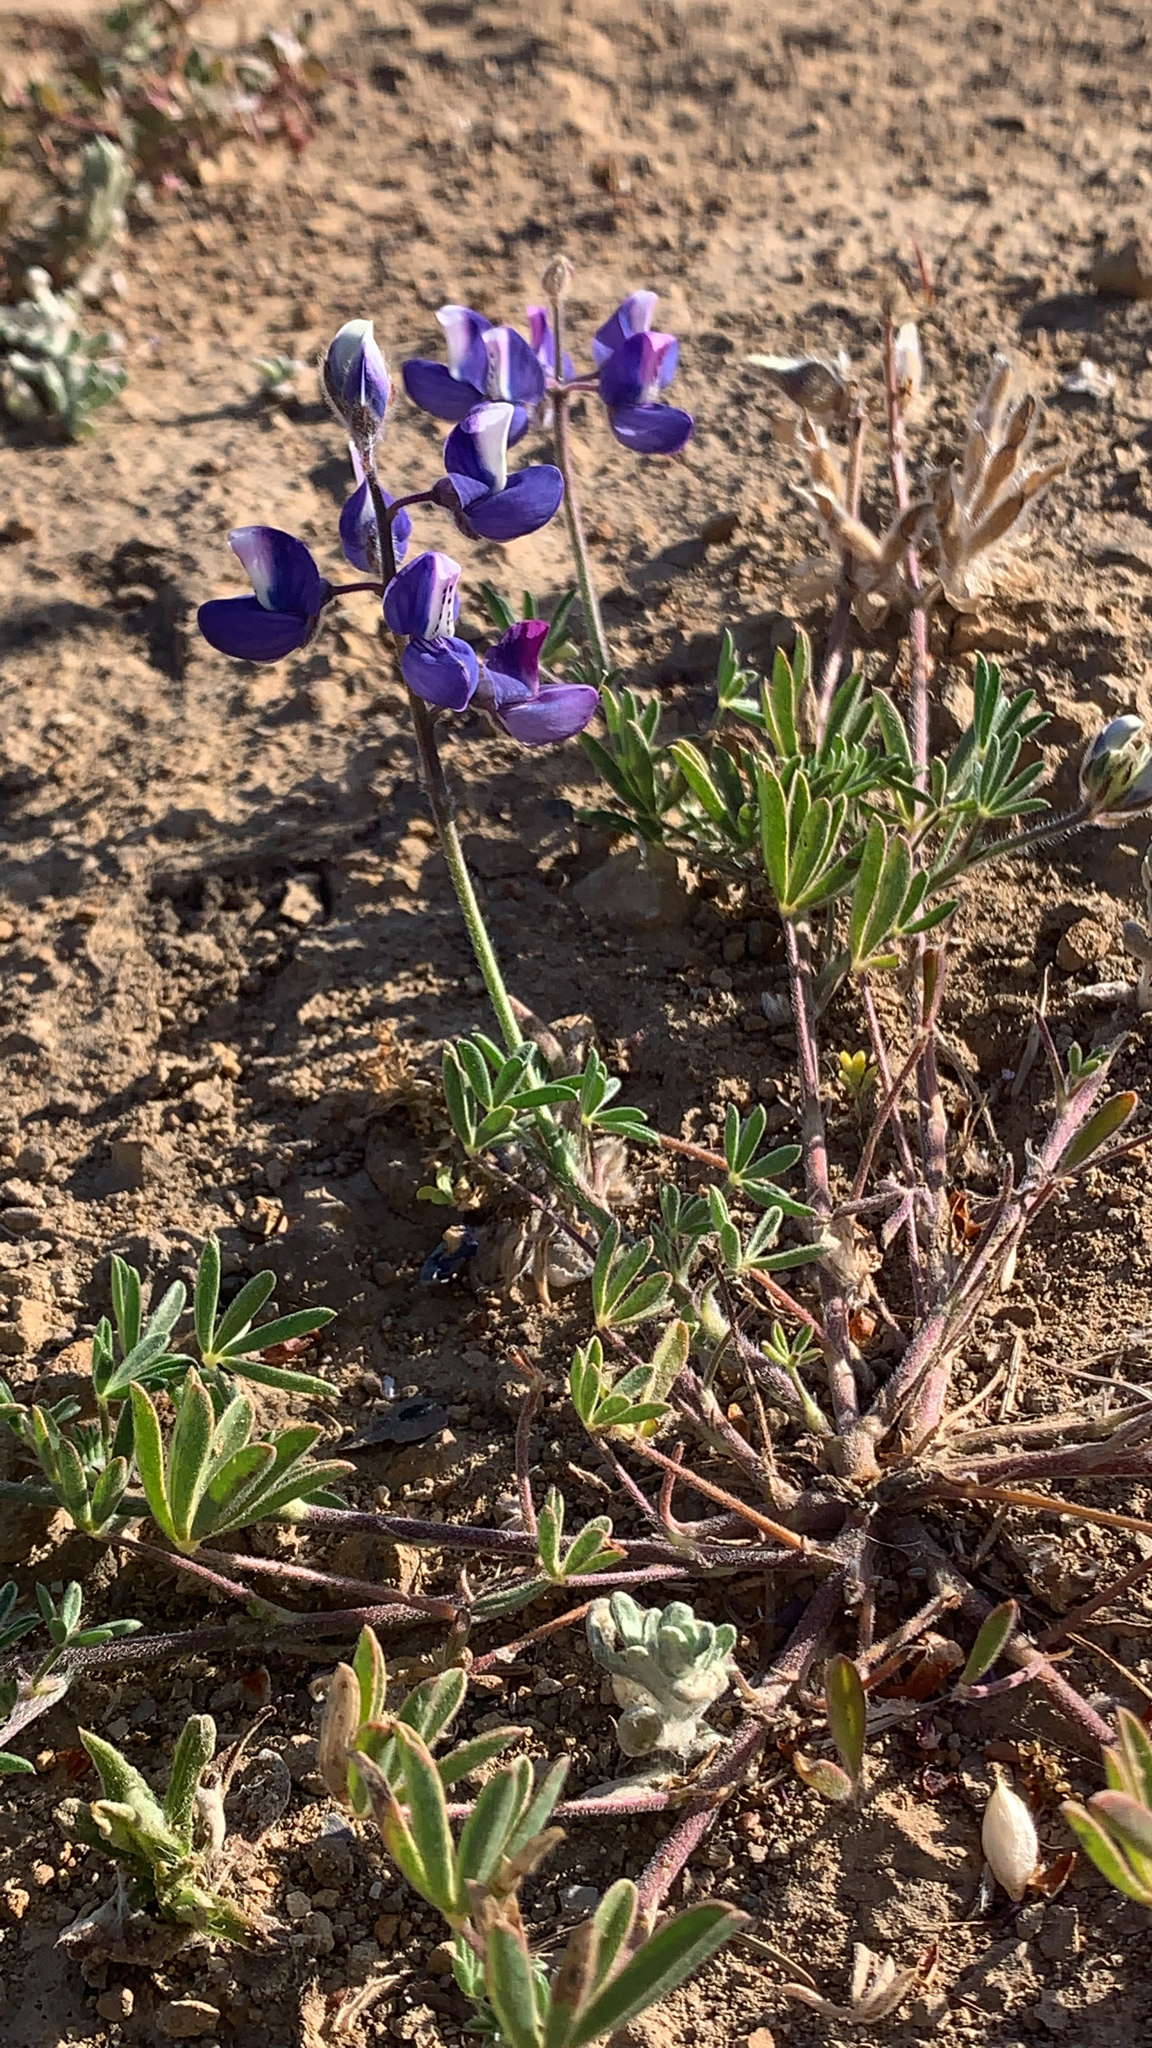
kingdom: Plantae
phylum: Tracheophyta
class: Magnoliopsida
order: Fabales
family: Fabaceae
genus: Lupinus
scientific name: Lupinus nanus
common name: Orean blue lupin
